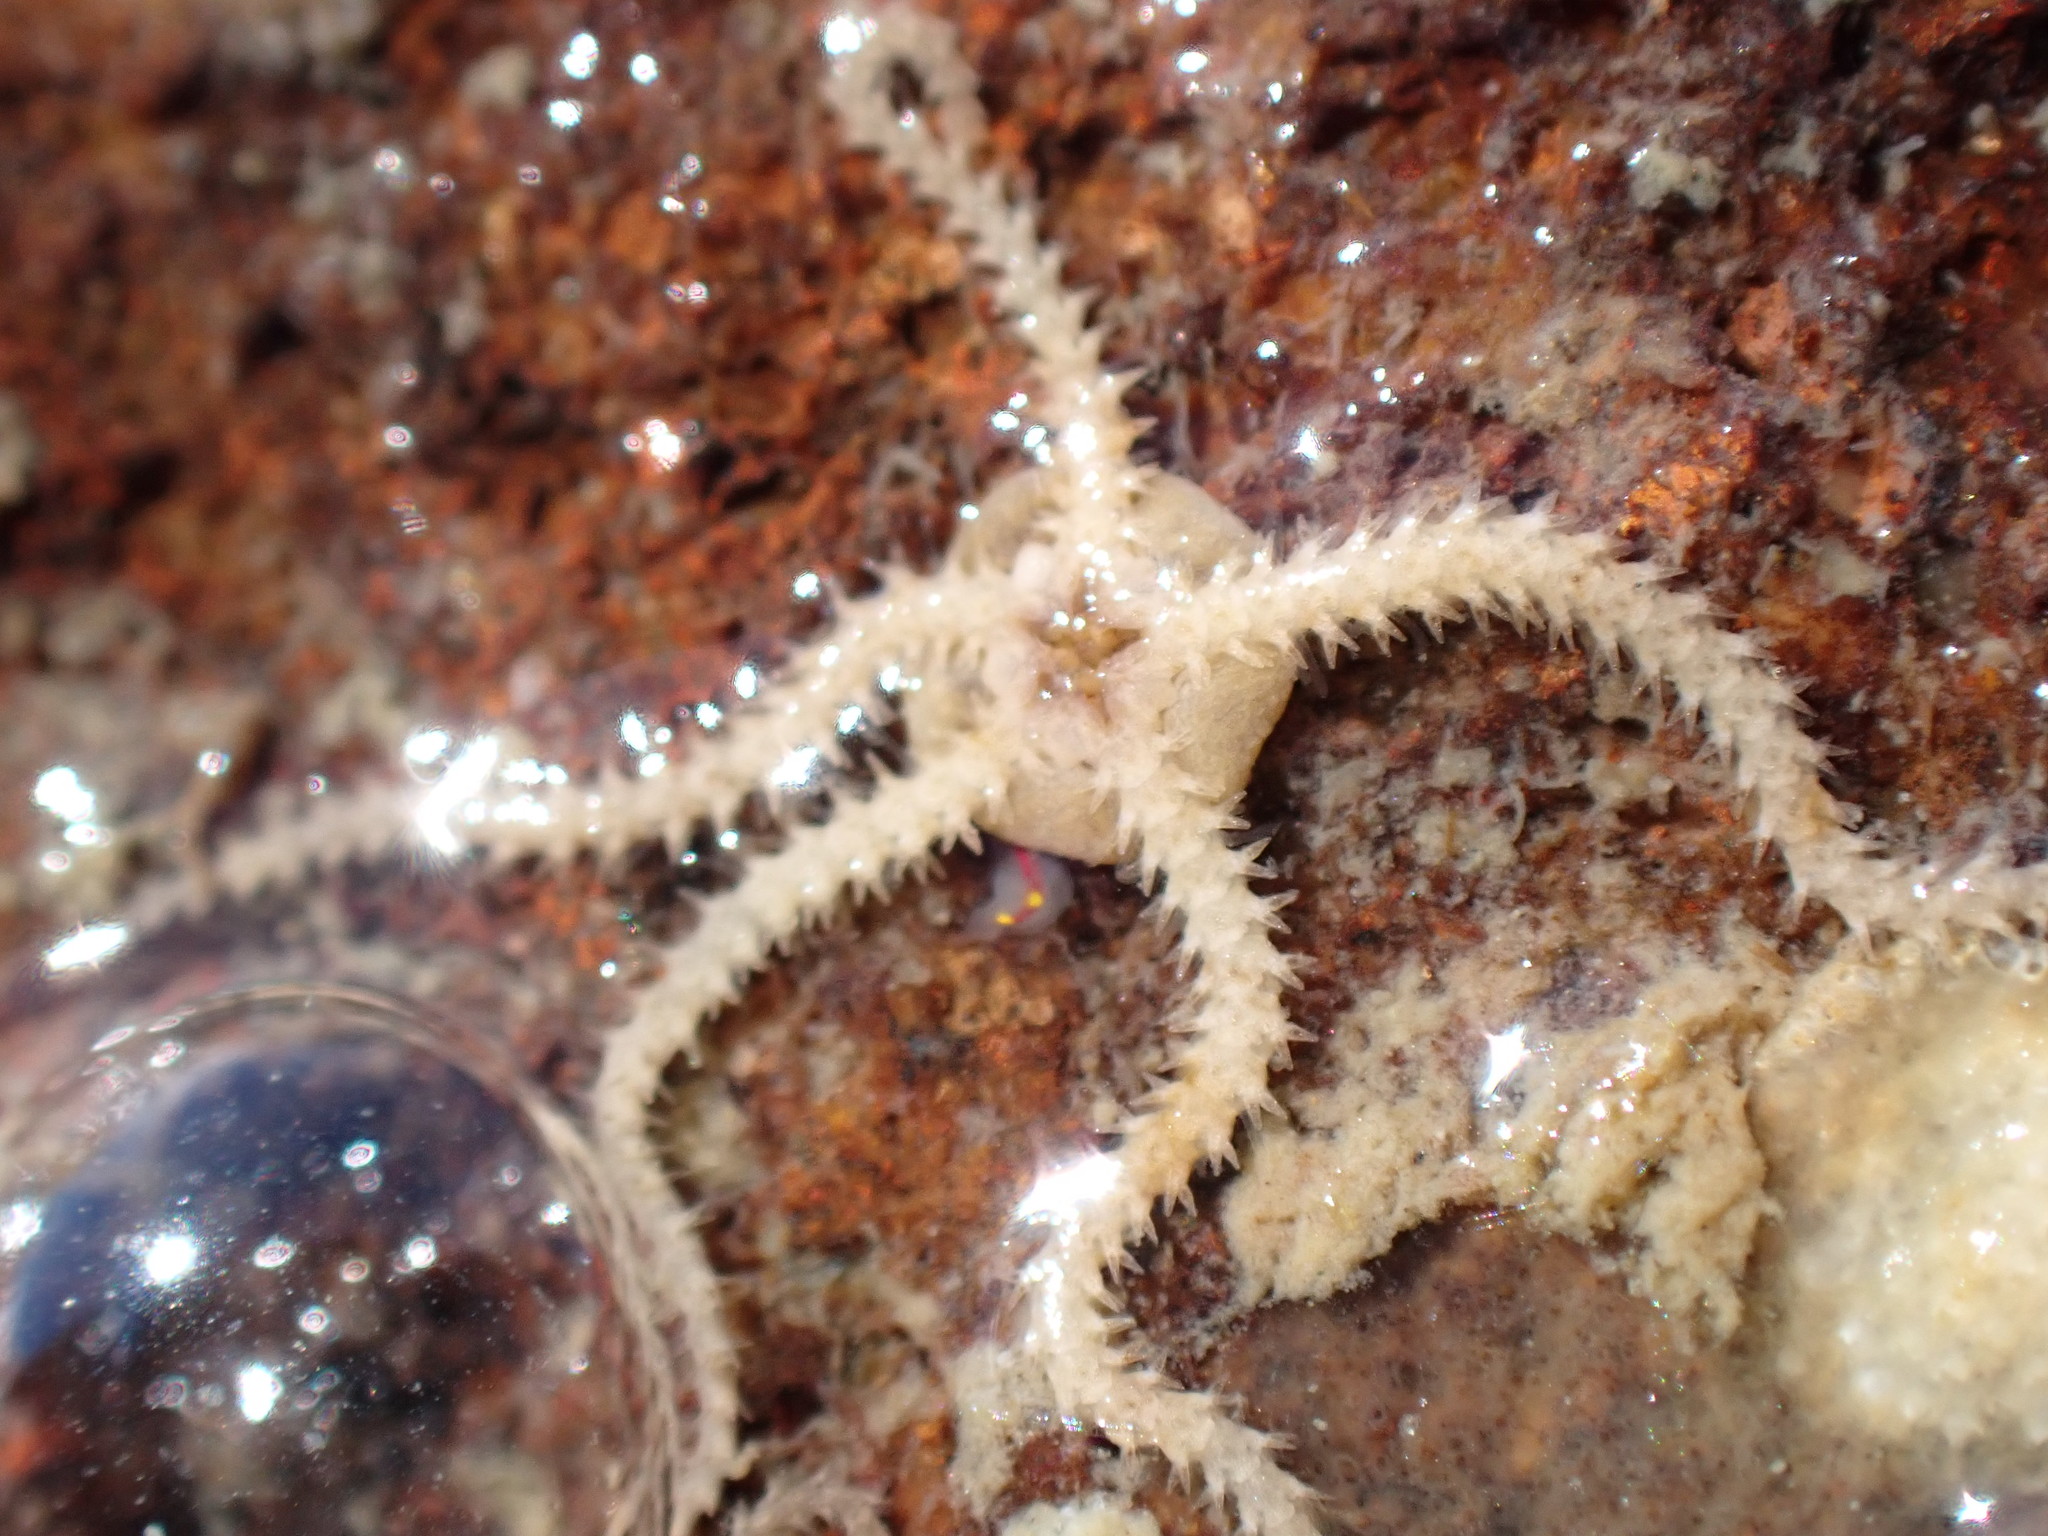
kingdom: Animalia
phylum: Echinodermata
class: Ophiuroidea
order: Amphilepidida
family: Amphiuridae
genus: Amphipholis
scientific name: Amphipholis squamata
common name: Brooding snake star
